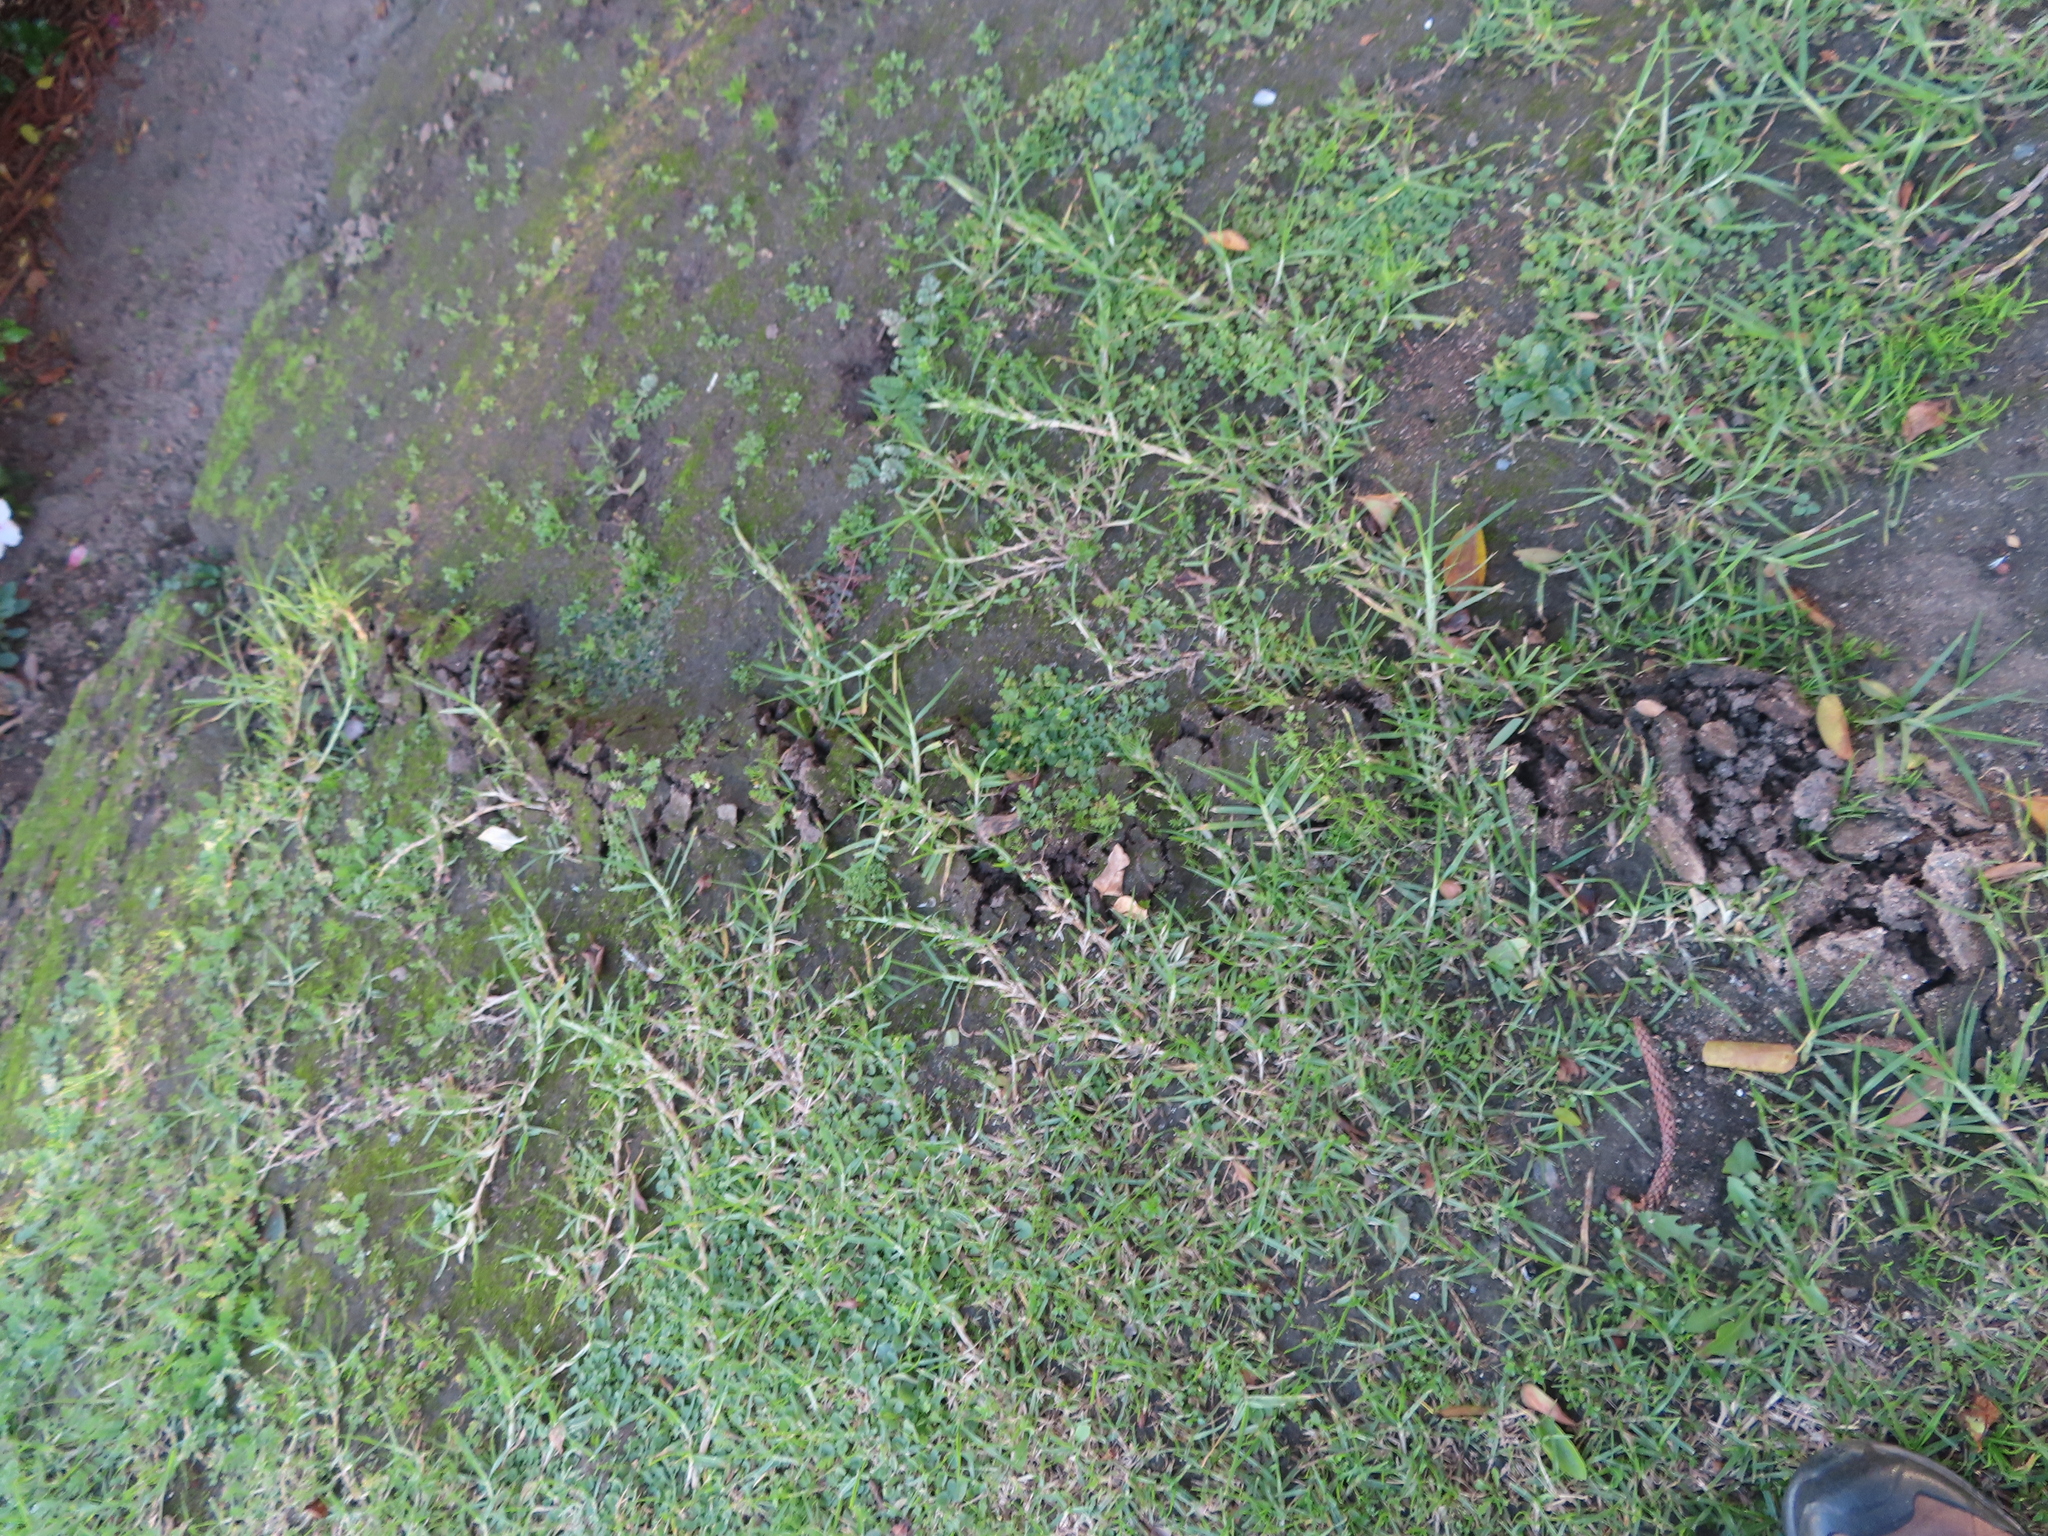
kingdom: Animalia
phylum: Chordata
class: Mammalia
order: Afrosoricida
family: Chrysochloridae
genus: Chrysochloris
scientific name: Chrysochloris asiatica
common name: Cape golden mole
